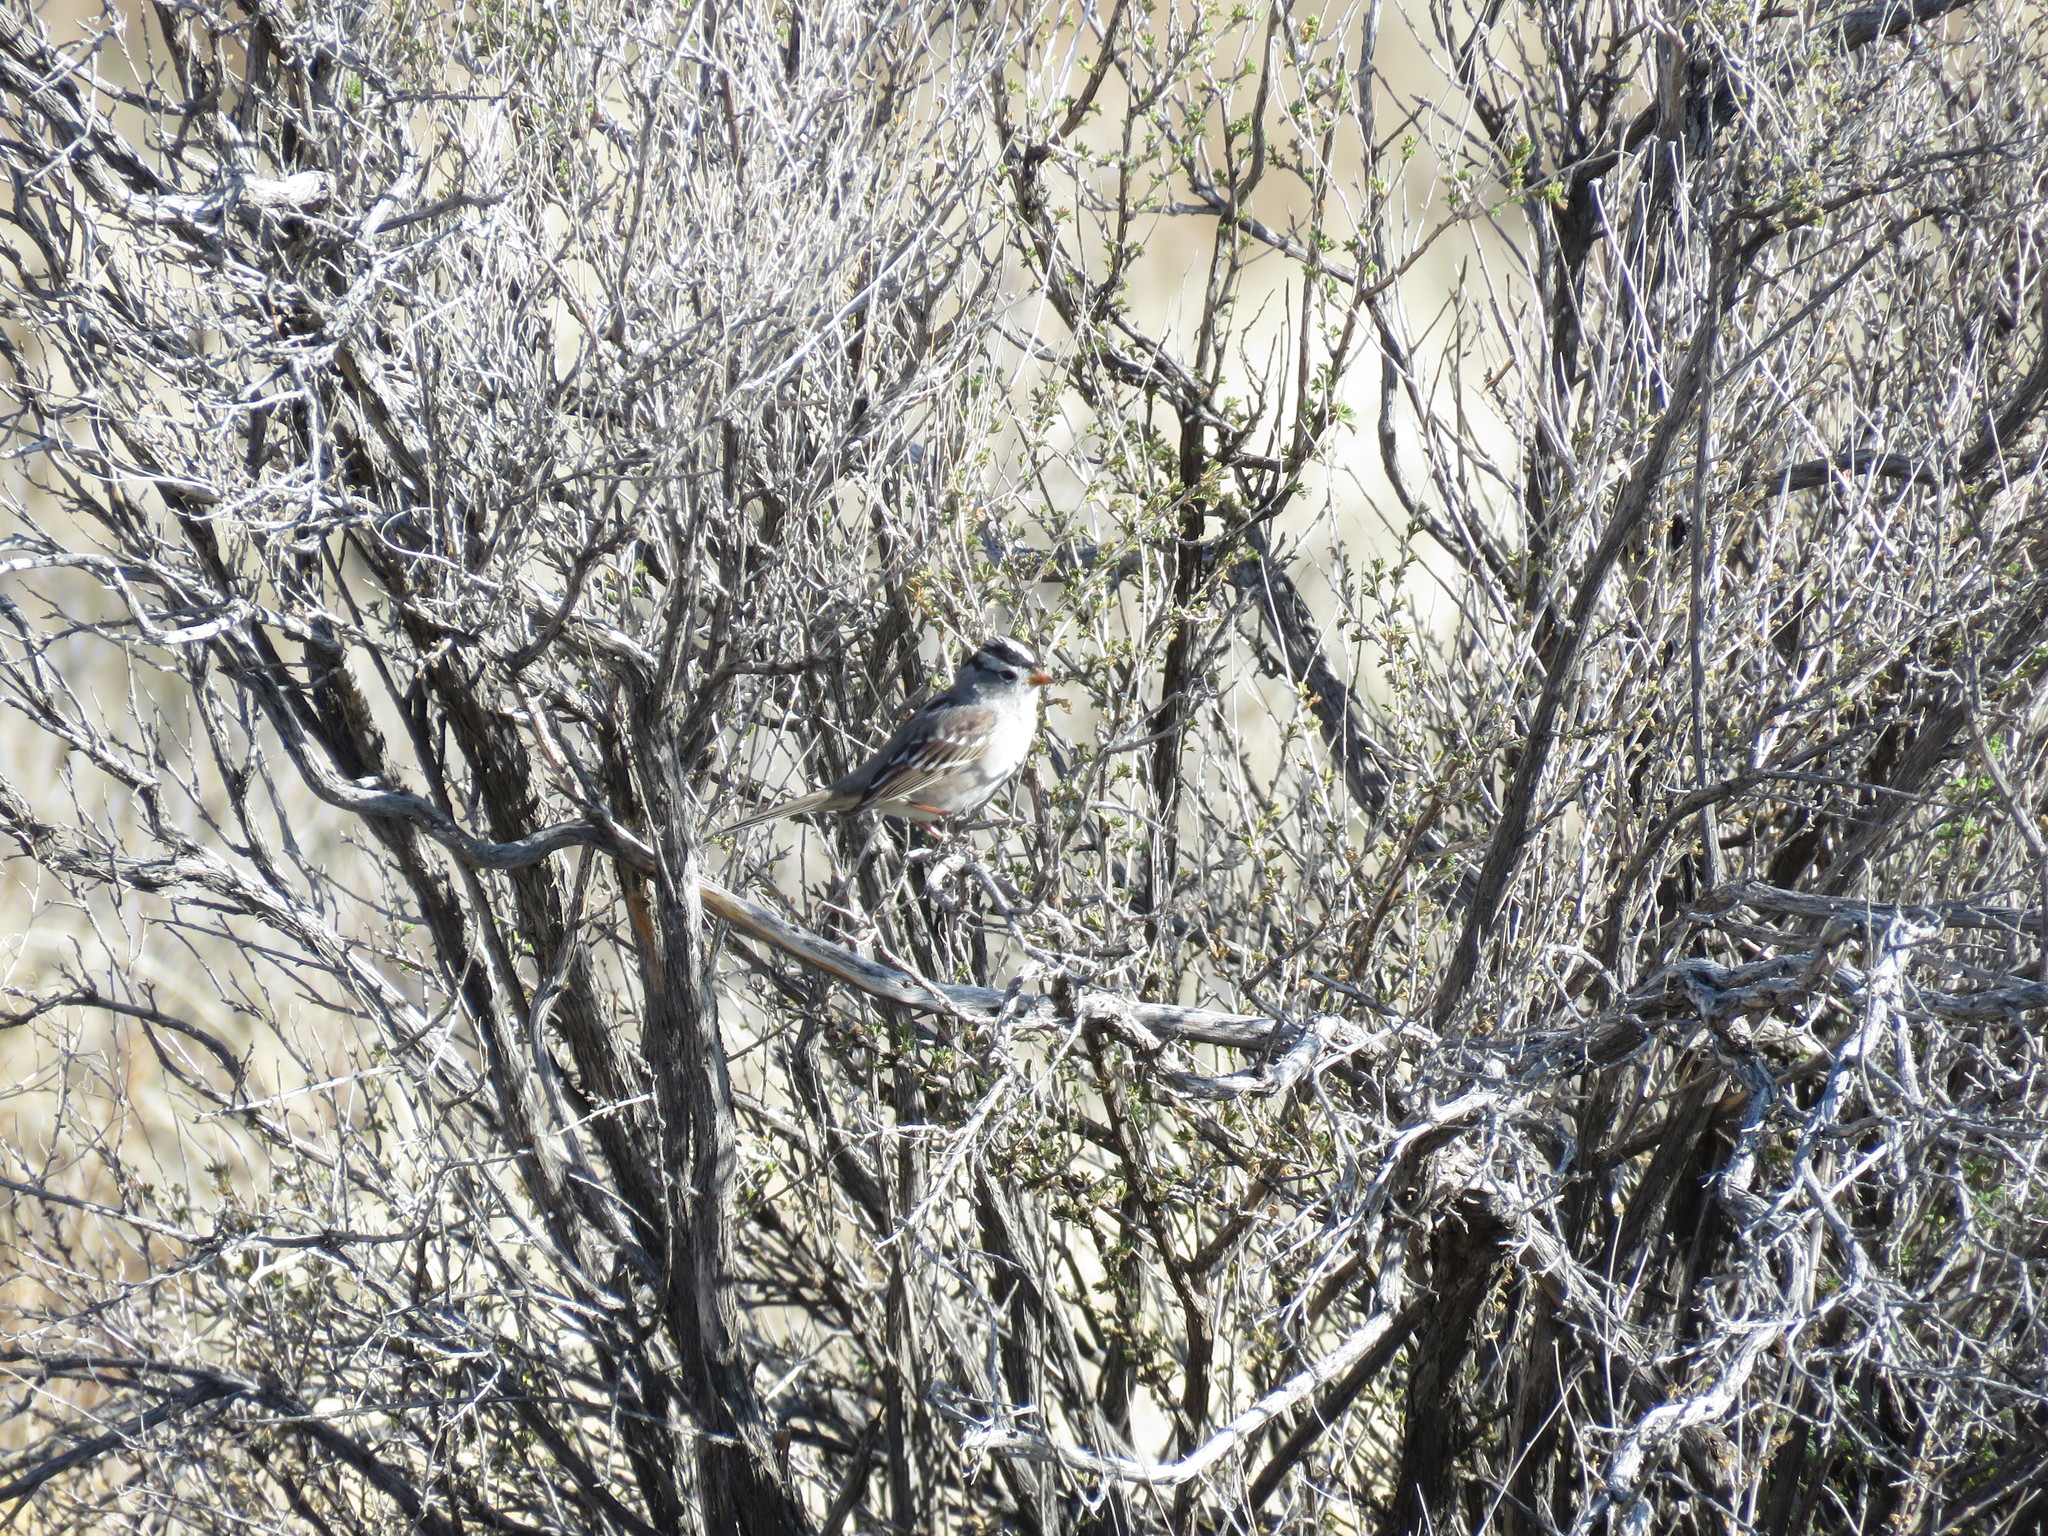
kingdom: Animalia
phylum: Chordata
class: Aves
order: Passeriformes
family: Passerellidae
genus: Zonotrichia
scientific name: Zonotrichia leucophrys
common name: White-crowned sparrow
